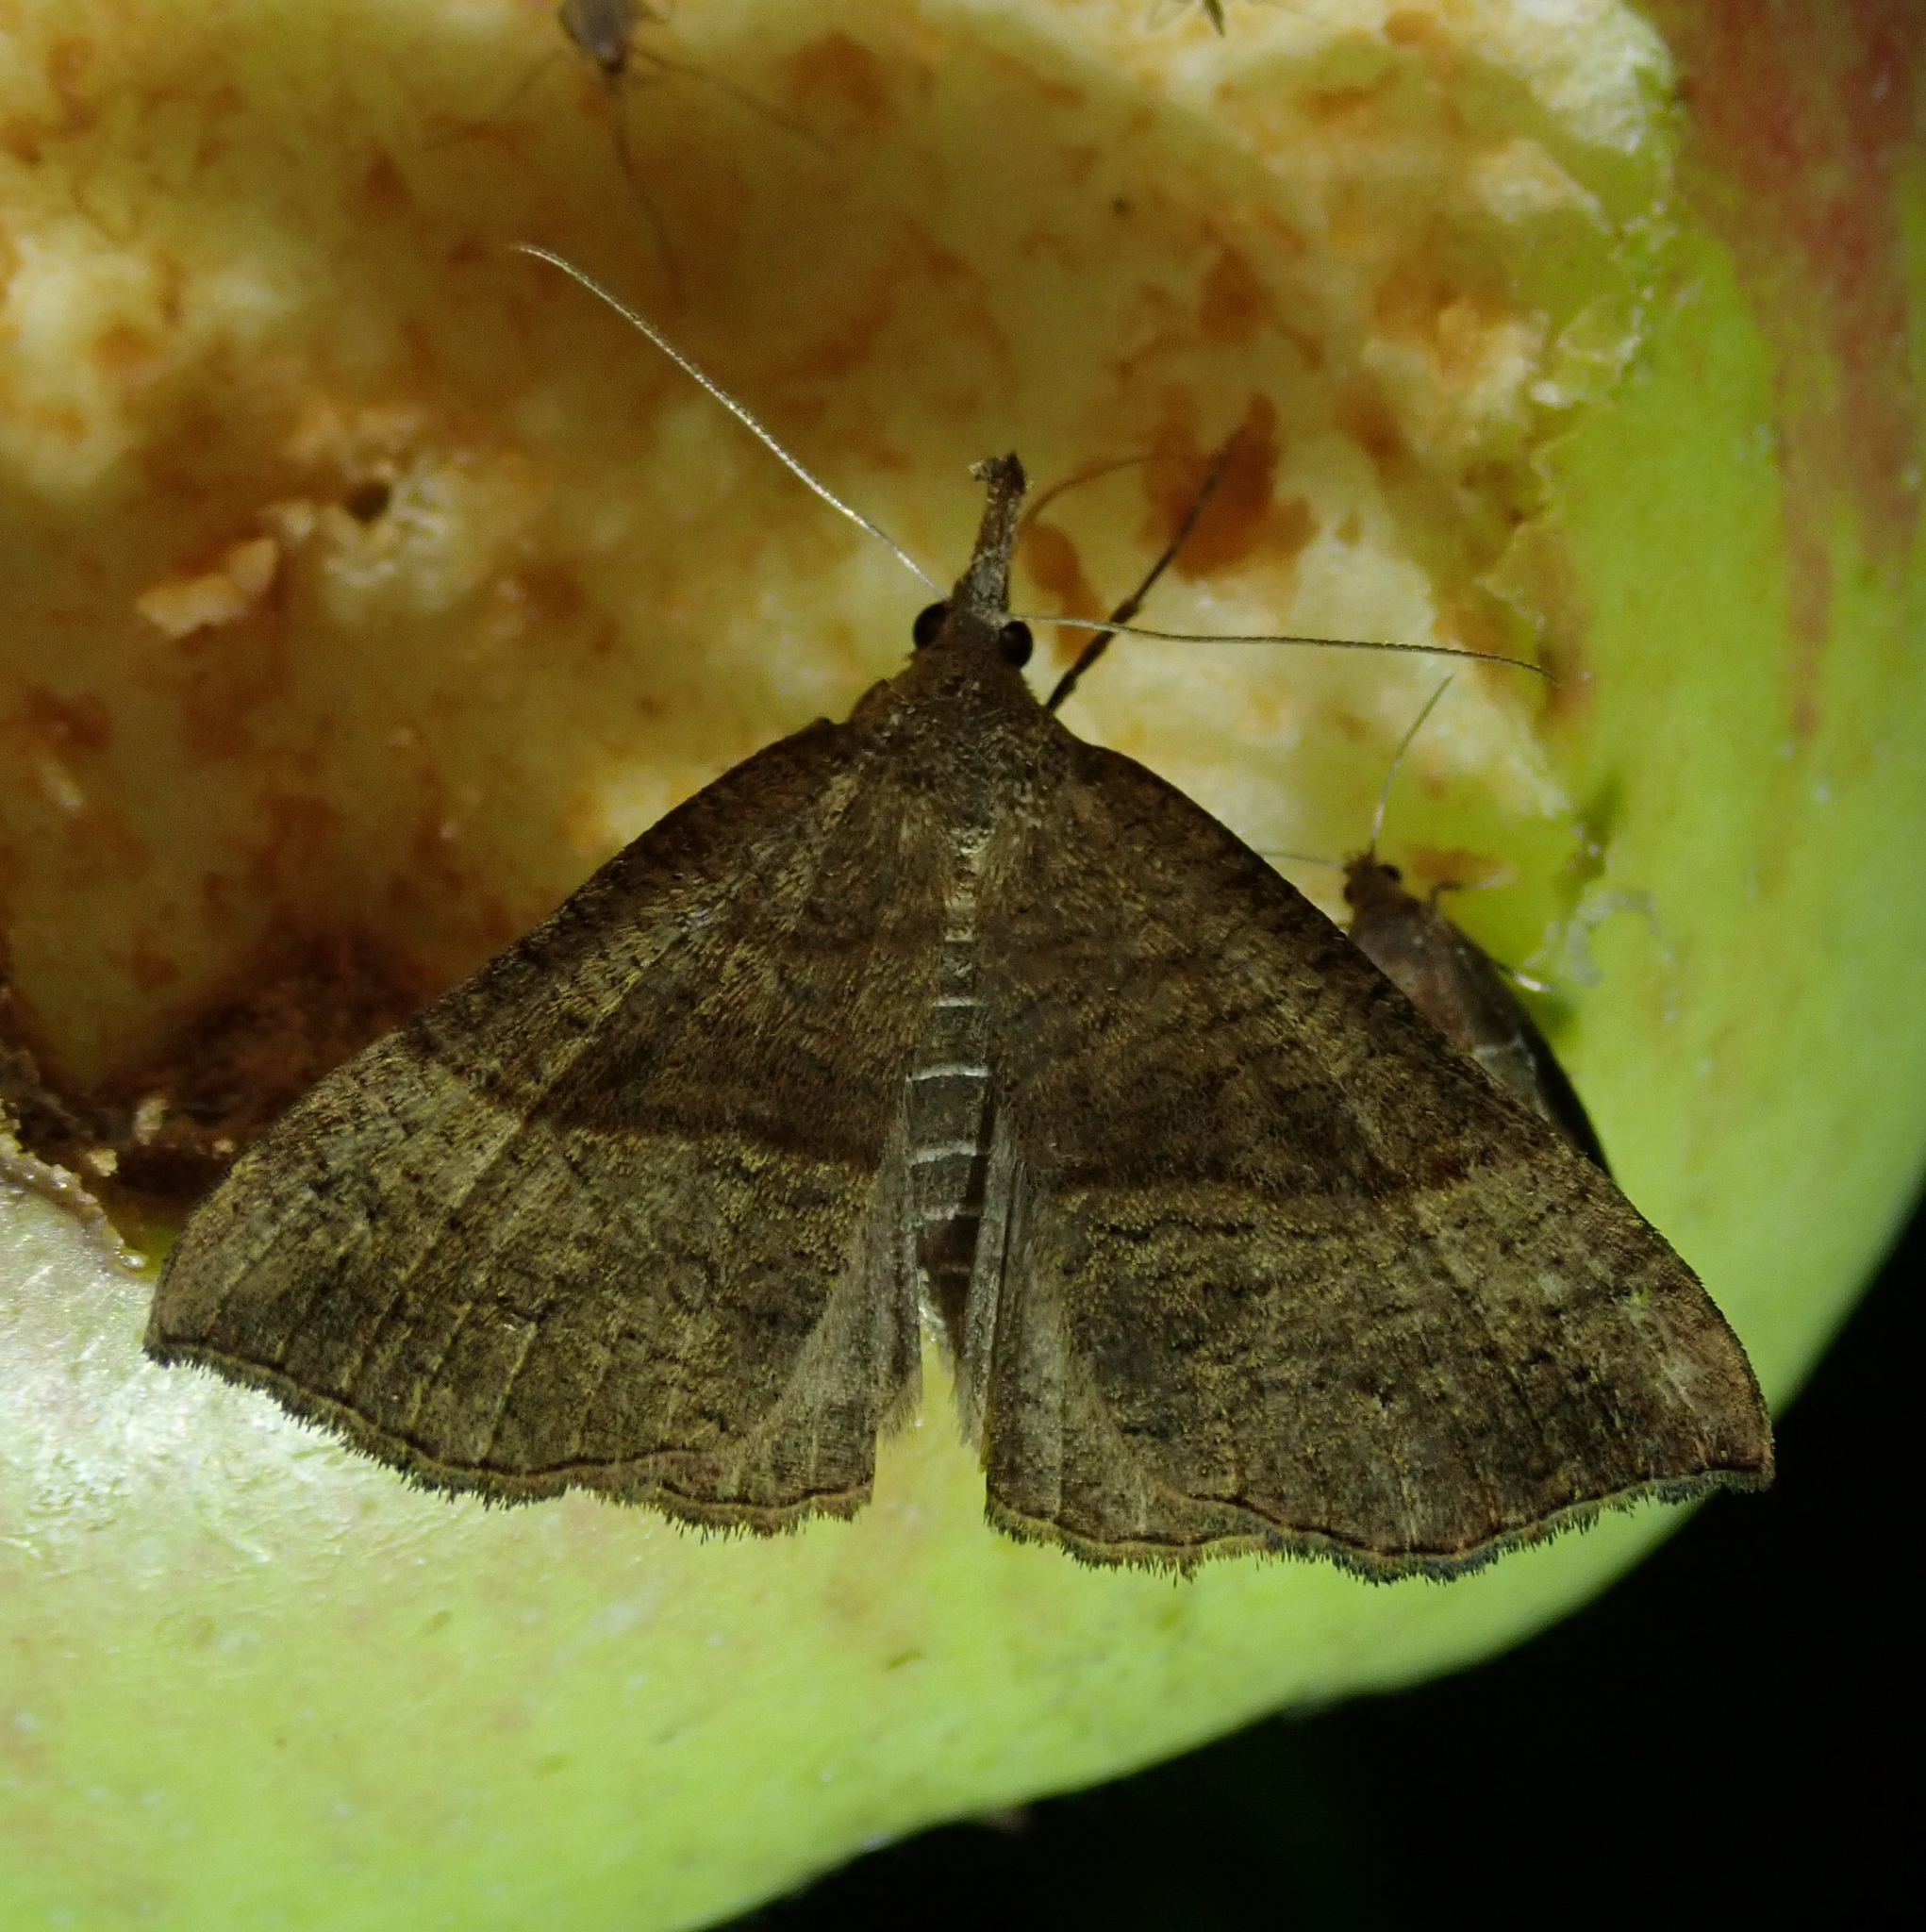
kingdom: Animalia
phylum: Arthropoda
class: Insecta
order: Lepidoptera
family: Erebidae
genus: Hypena
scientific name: Hypena proboscidalis
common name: Snout
